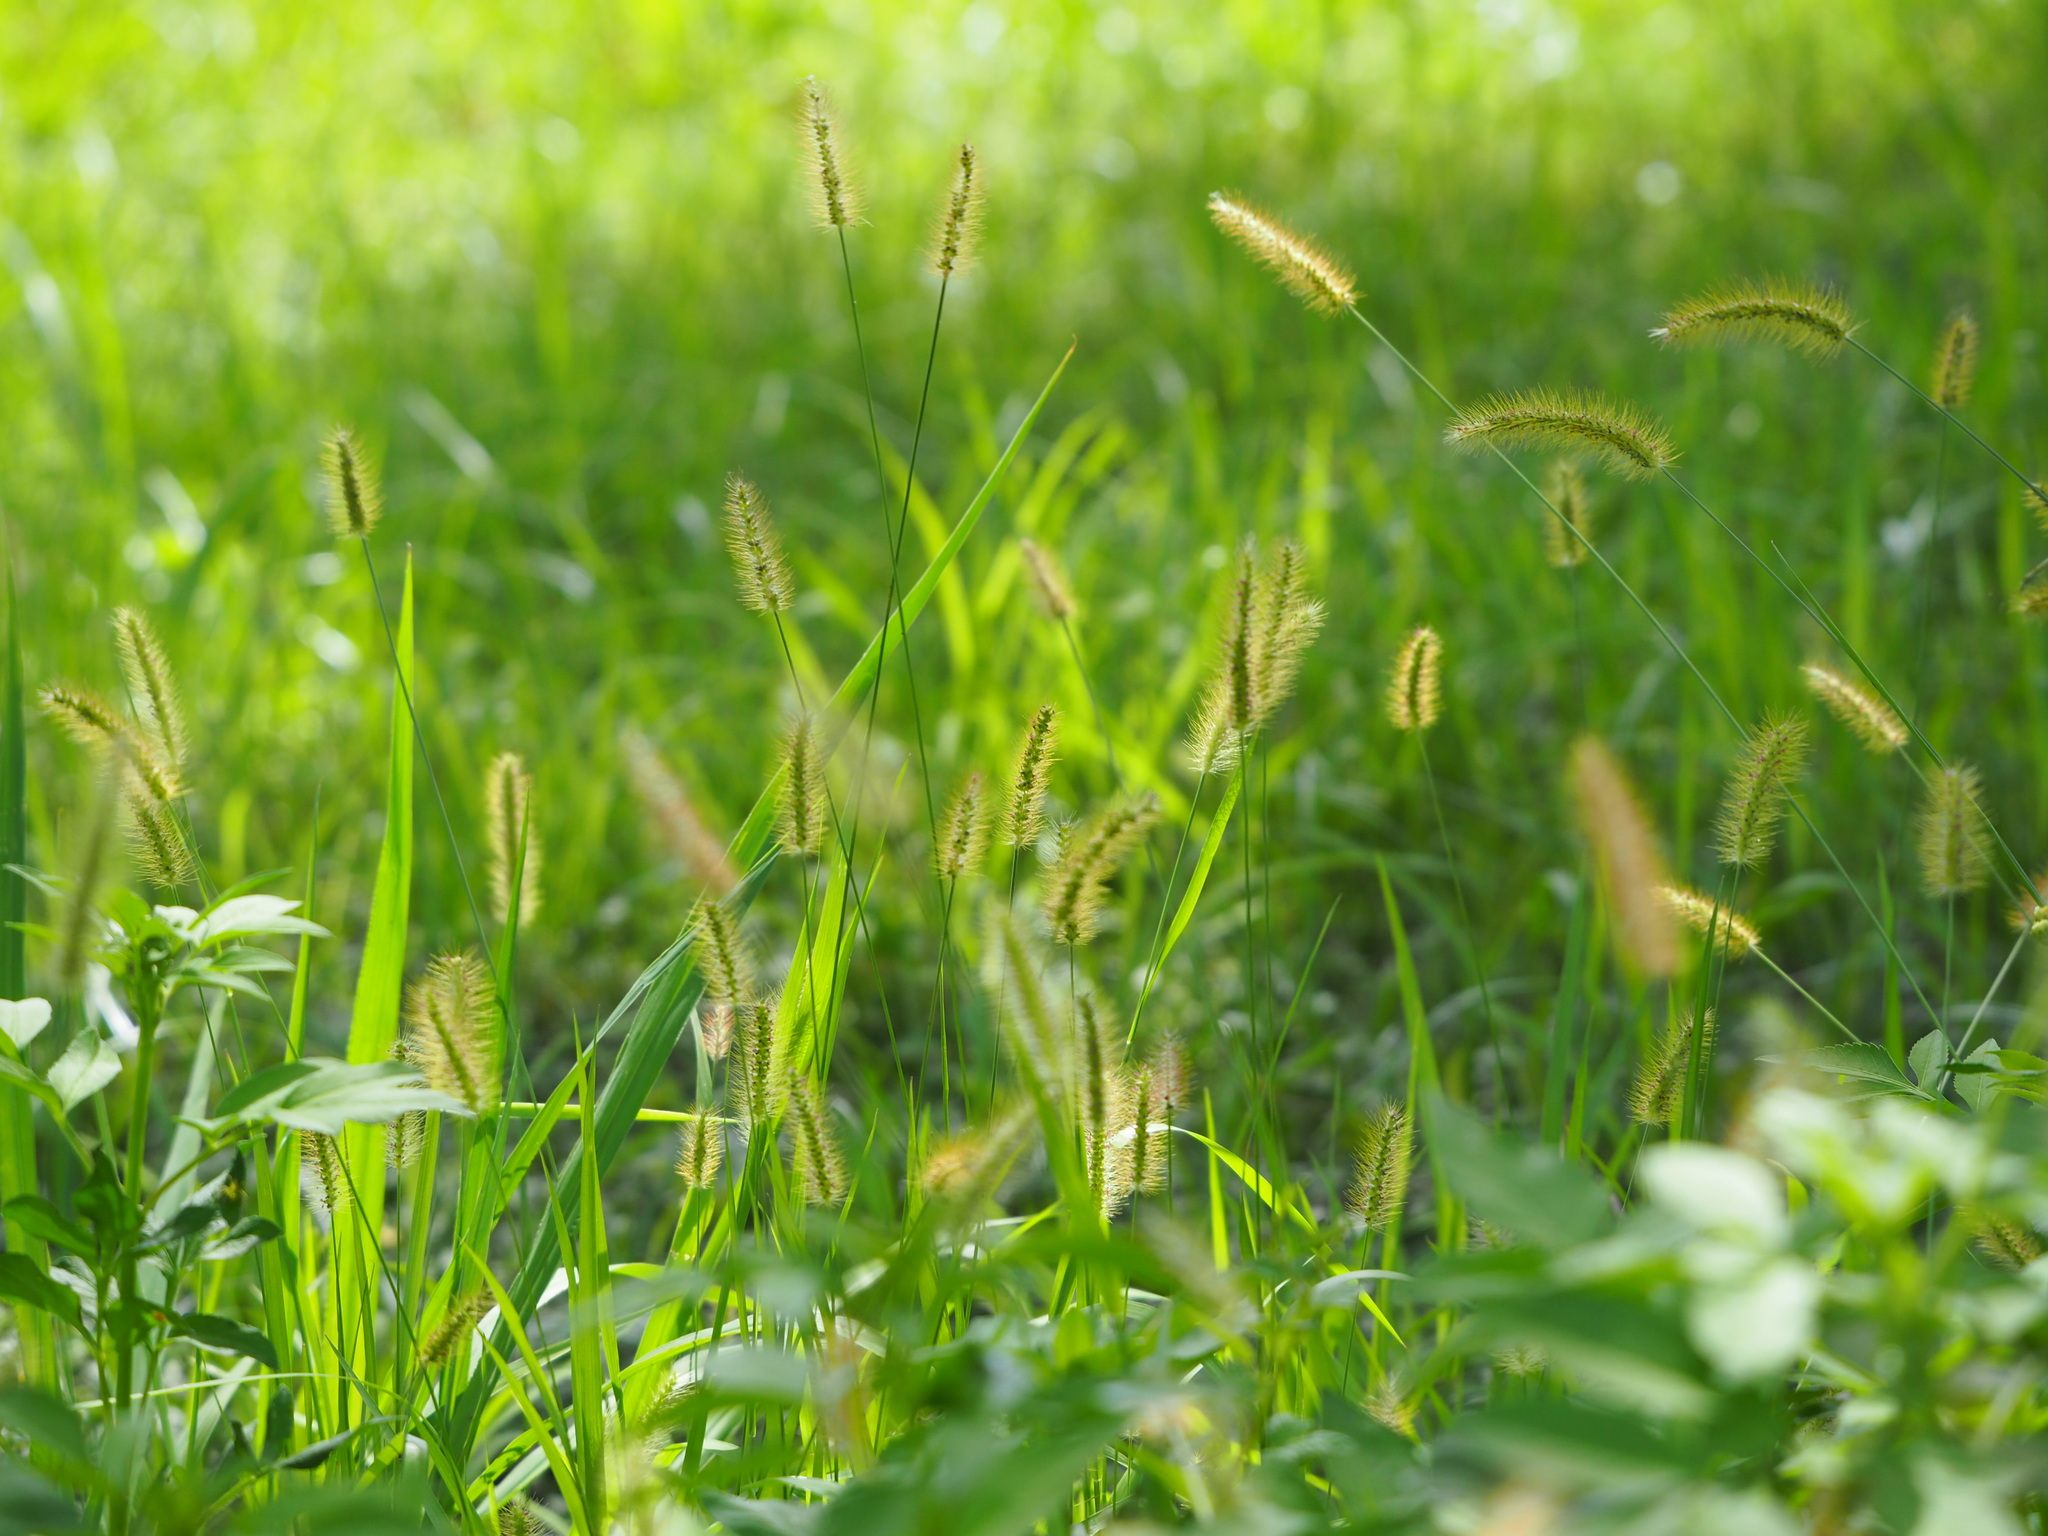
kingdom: Plantae
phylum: Tracheophyta
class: Liliopsida
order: Poales
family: Poaceae
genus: Setaria
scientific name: Setaria parviflora
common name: Knotroot bristle-grass
